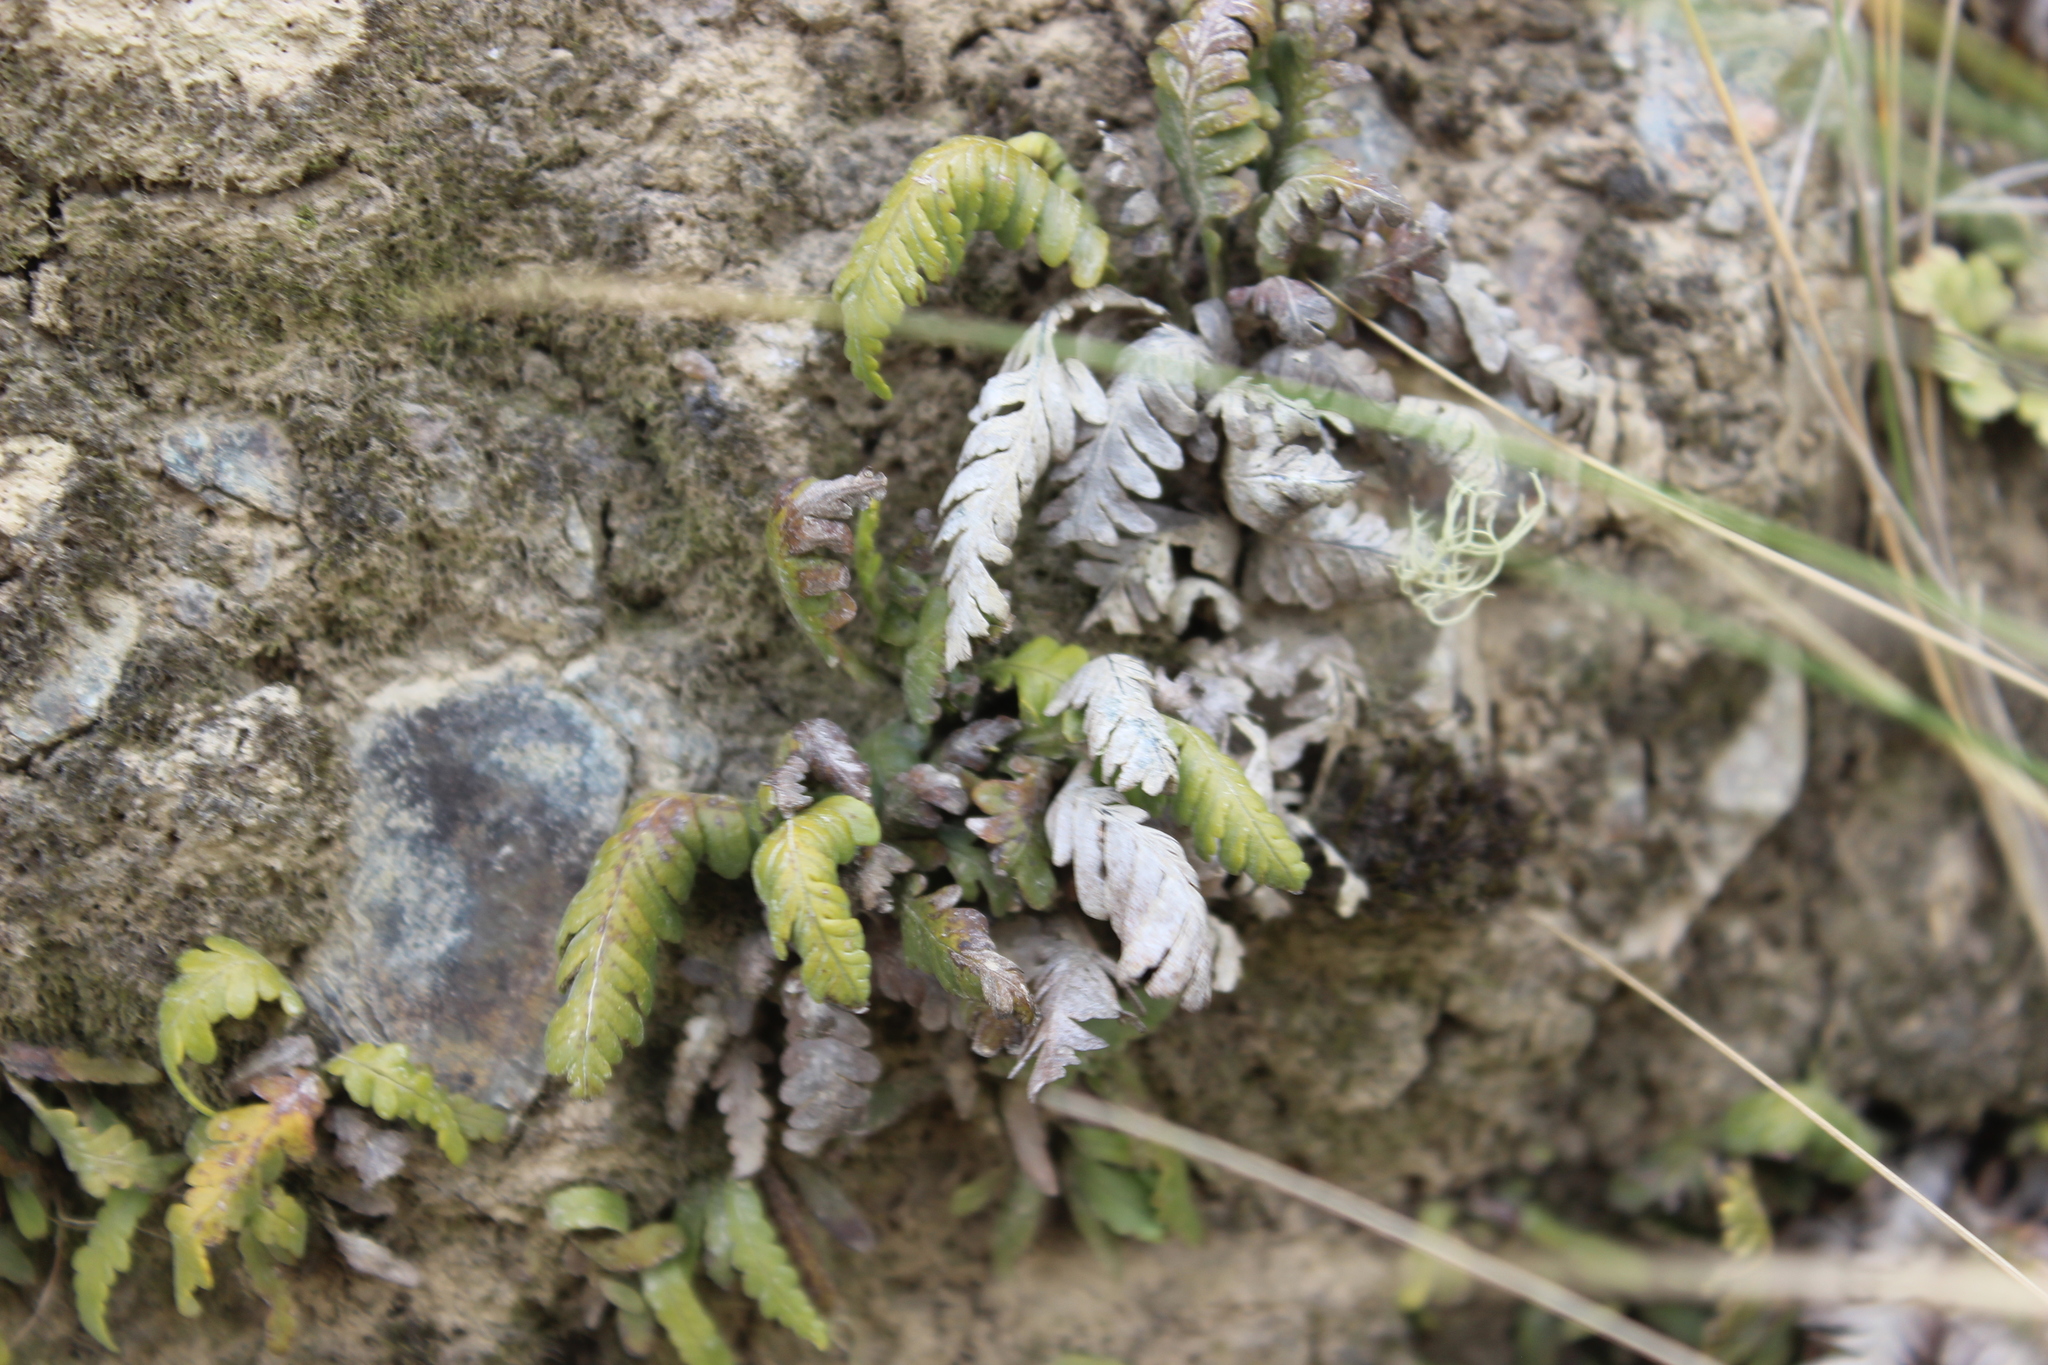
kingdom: Plantae
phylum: Tracheophyta
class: Polypodiopsida
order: Polypodiales
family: Polypodiaceae
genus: Notogrammitis
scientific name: Notogrammitis heterophylla
